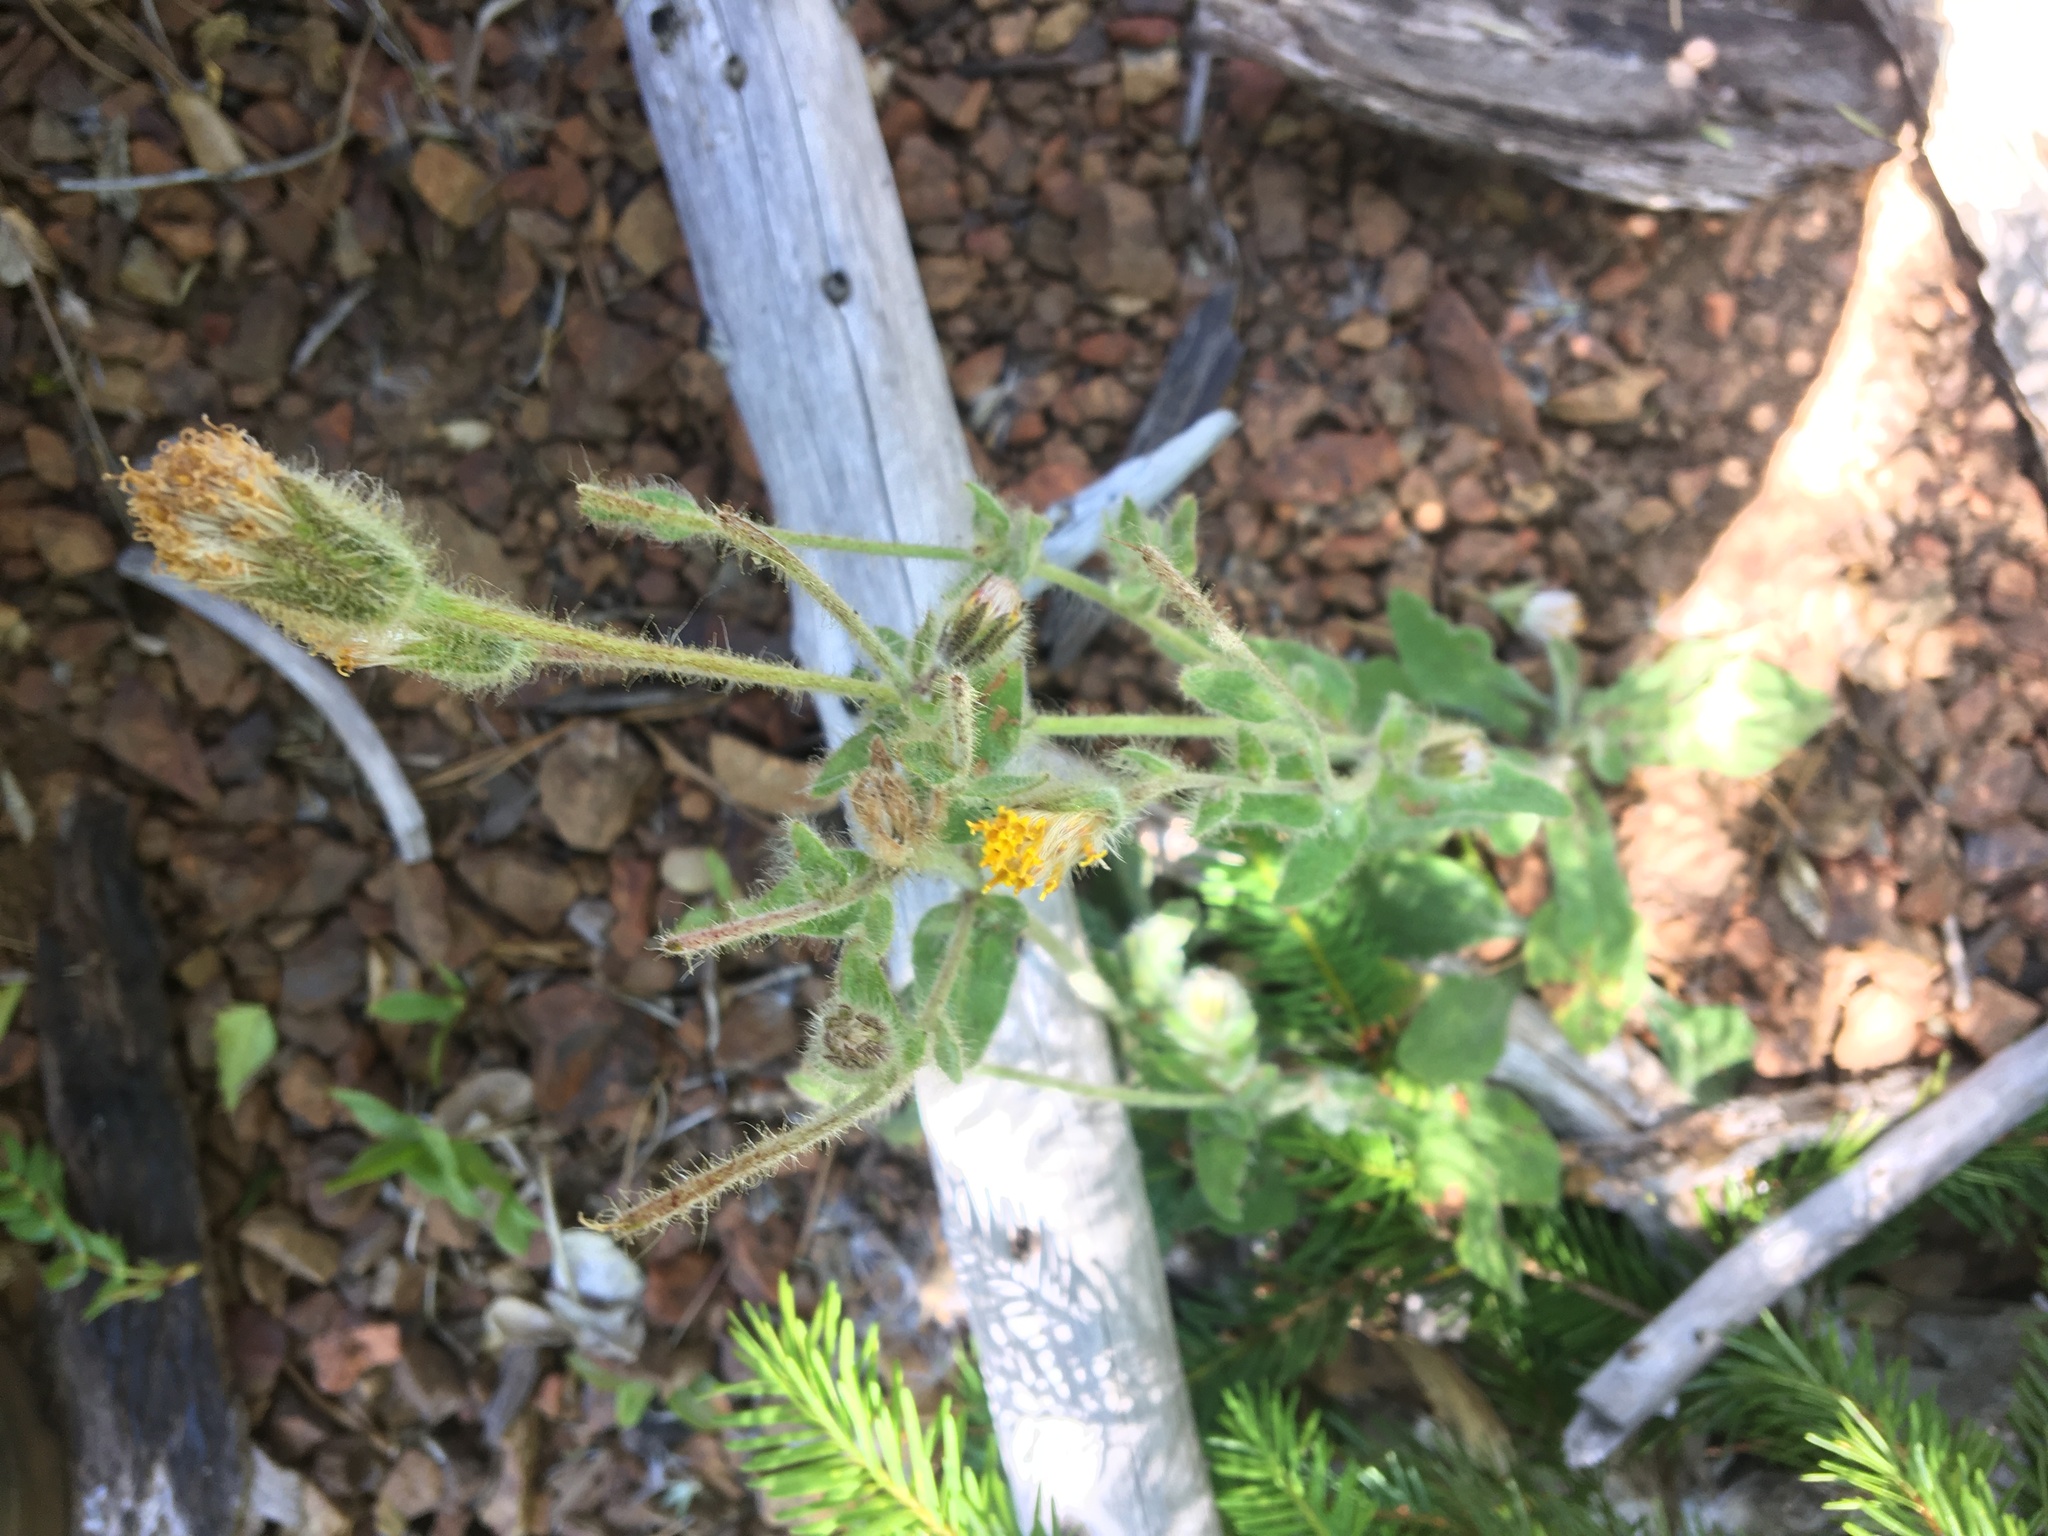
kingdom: Plantae
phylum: Tracheophyta
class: Magnoliopsida
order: Asterales
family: Asteraceae
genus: Arnica
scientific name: Arnica discoidea
